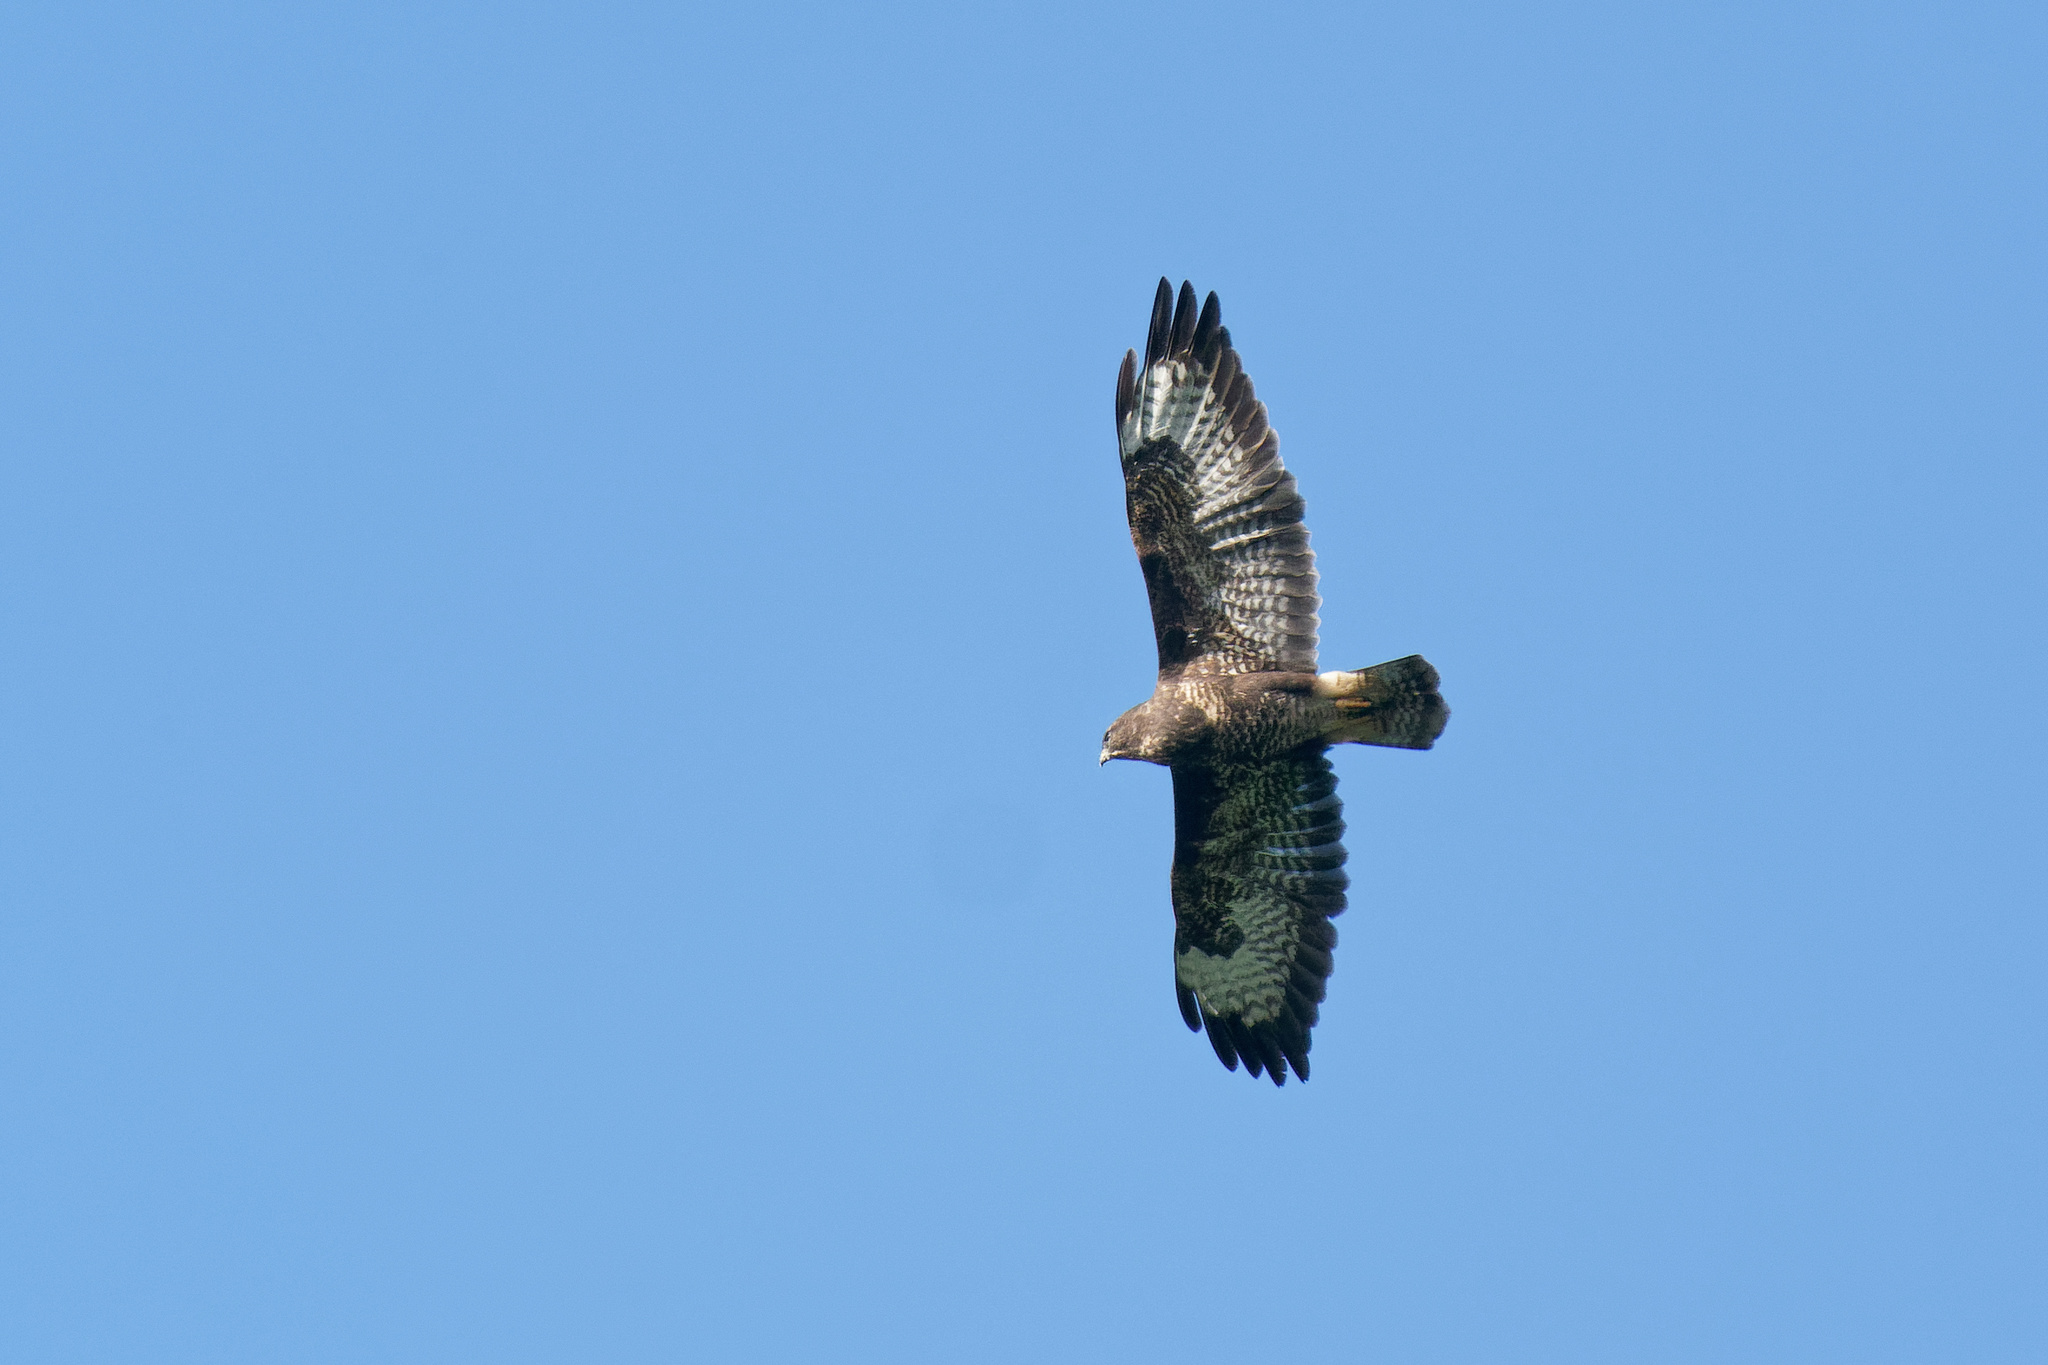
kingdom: Animalia
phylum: Chordata
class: Aves
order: Accipitriformes
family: Accipitridae
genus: Buteo
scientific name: Buteo buteo
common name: Common buzzard
